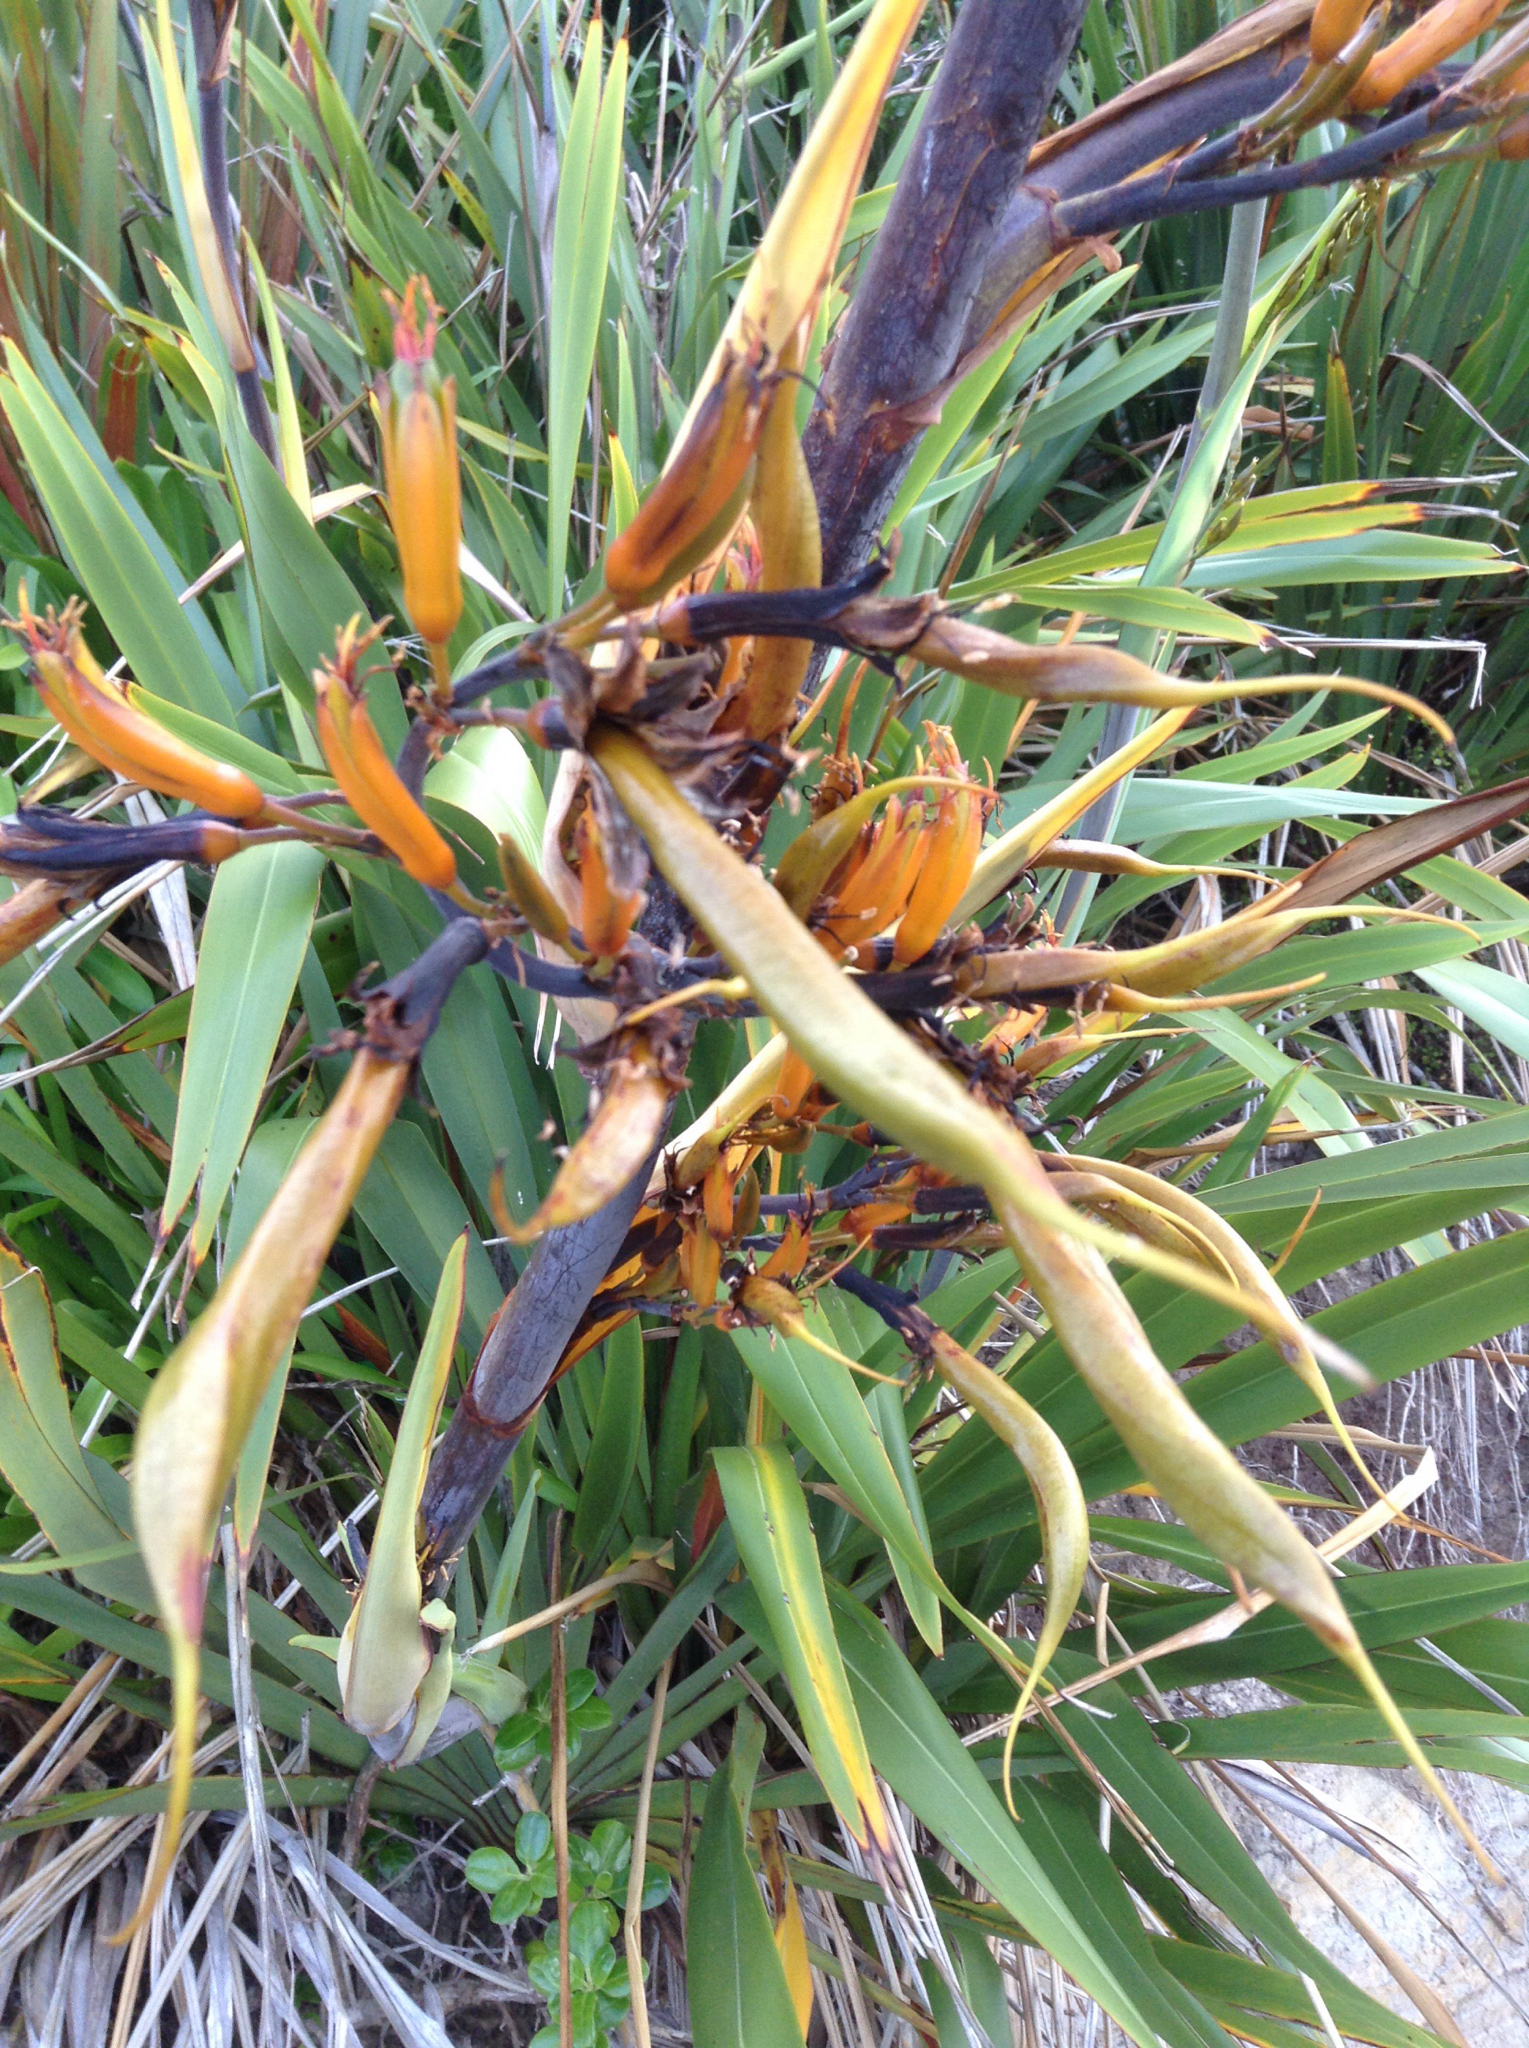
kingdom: Plantae
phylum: Tracheophyta
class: Liliopsida
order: Asparagales
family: Asphodelaceae
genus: Phormium
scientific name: Phormium colensoi
